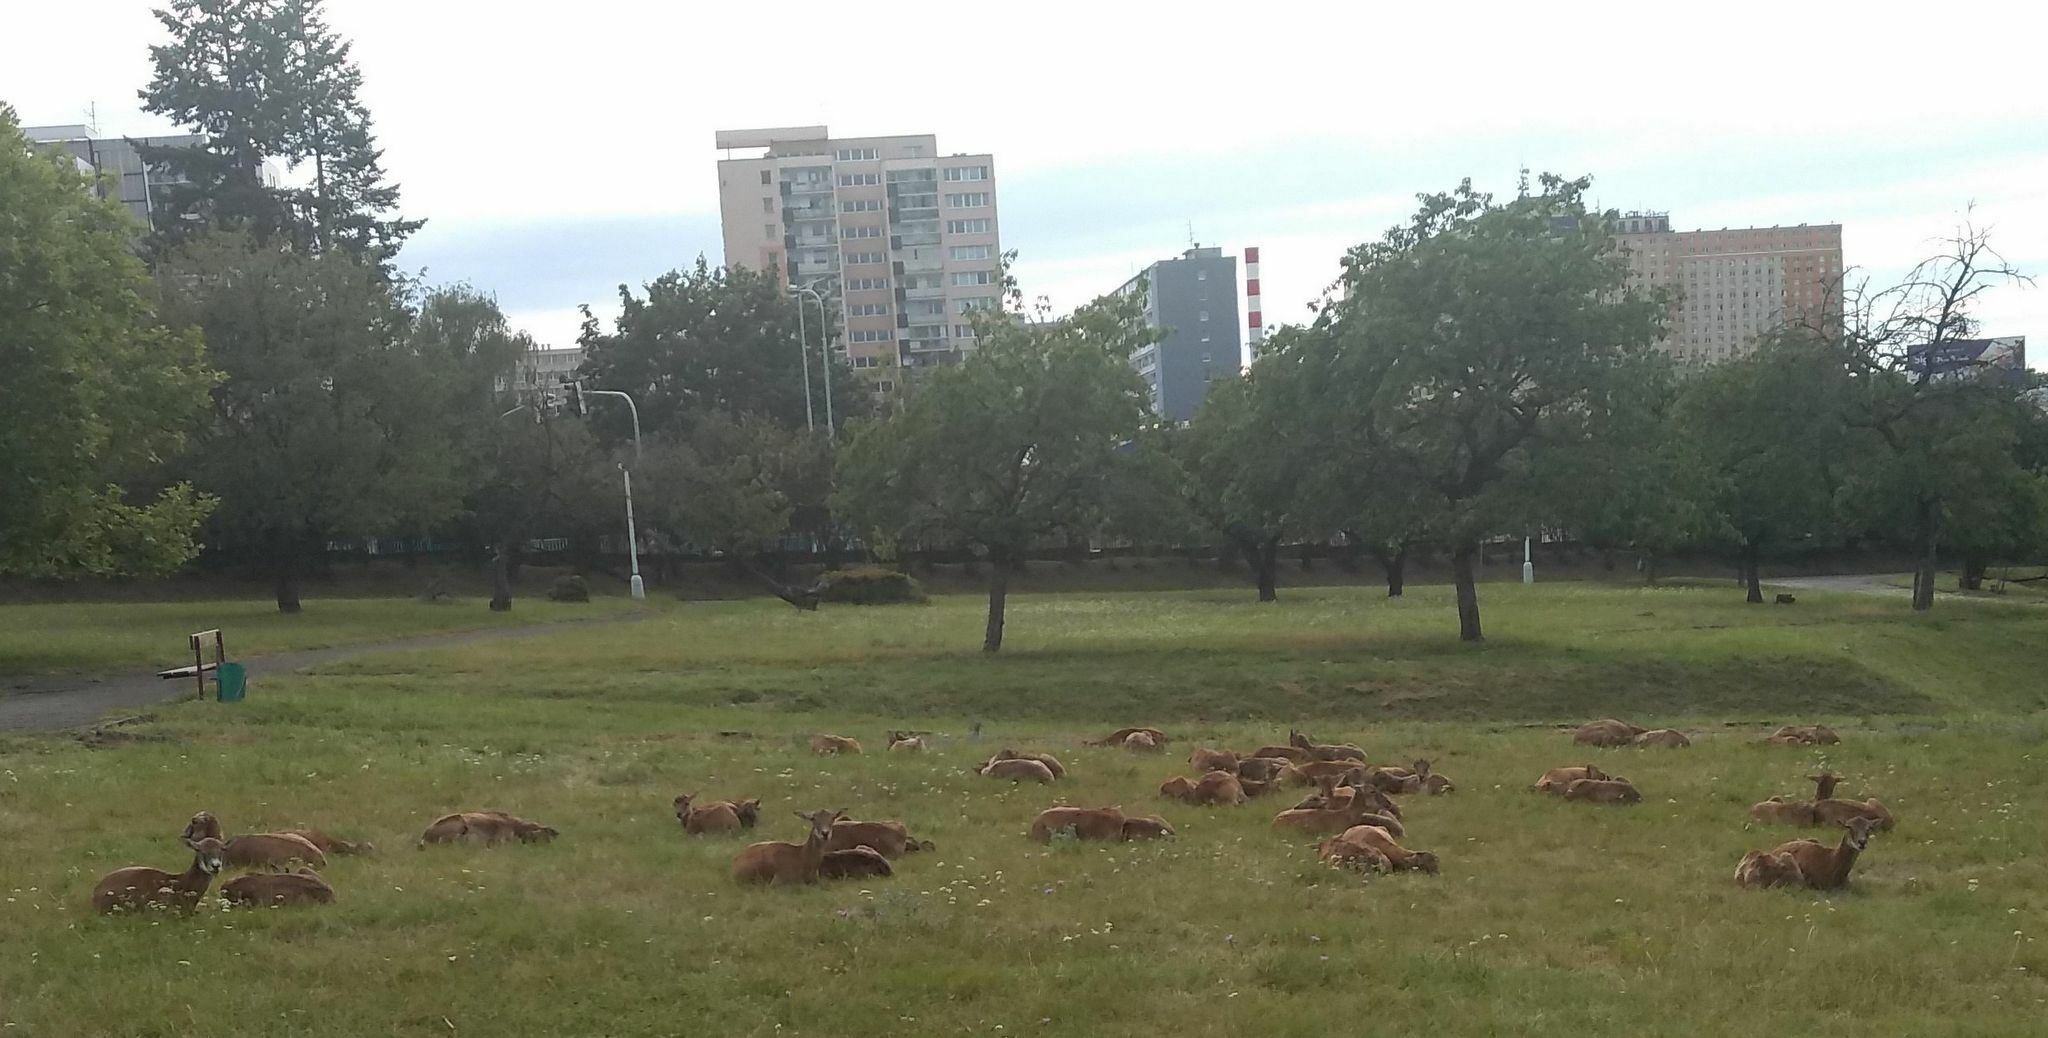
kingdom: Animalia
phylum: Chordata
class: Mammalia
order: Artiodactyla
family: Bovidae
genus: Ovis
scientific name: Ovis aries
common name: Domestic sheep
